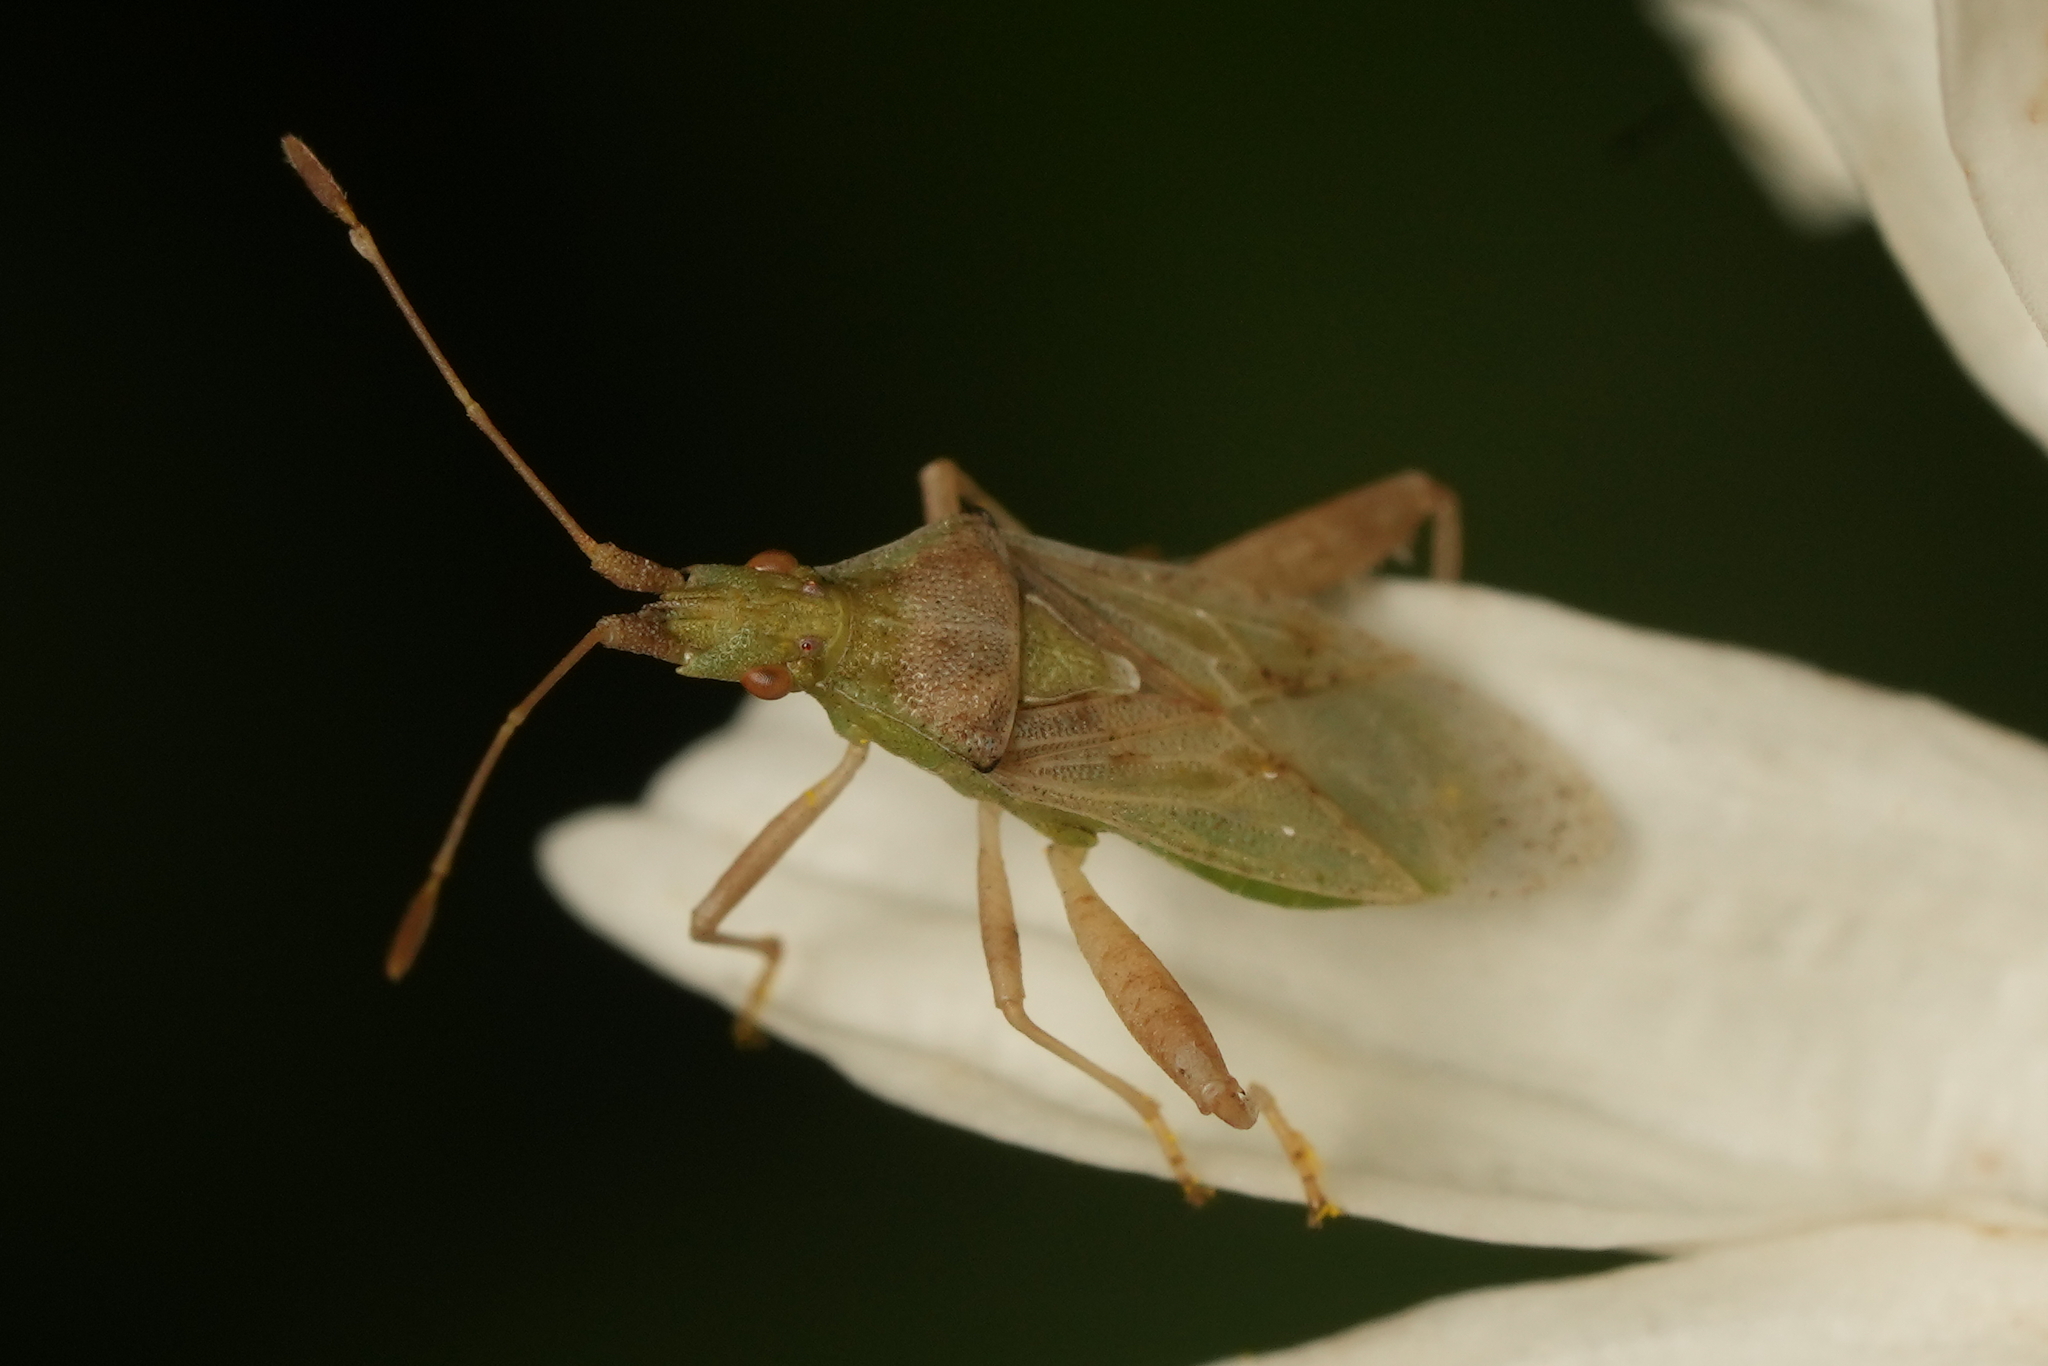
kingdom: Animalia
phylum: Arthropoda
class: Insecta
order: Hemiptera
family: Rhopalidae
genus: Harmostes
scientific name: Harmostes reflexulus
